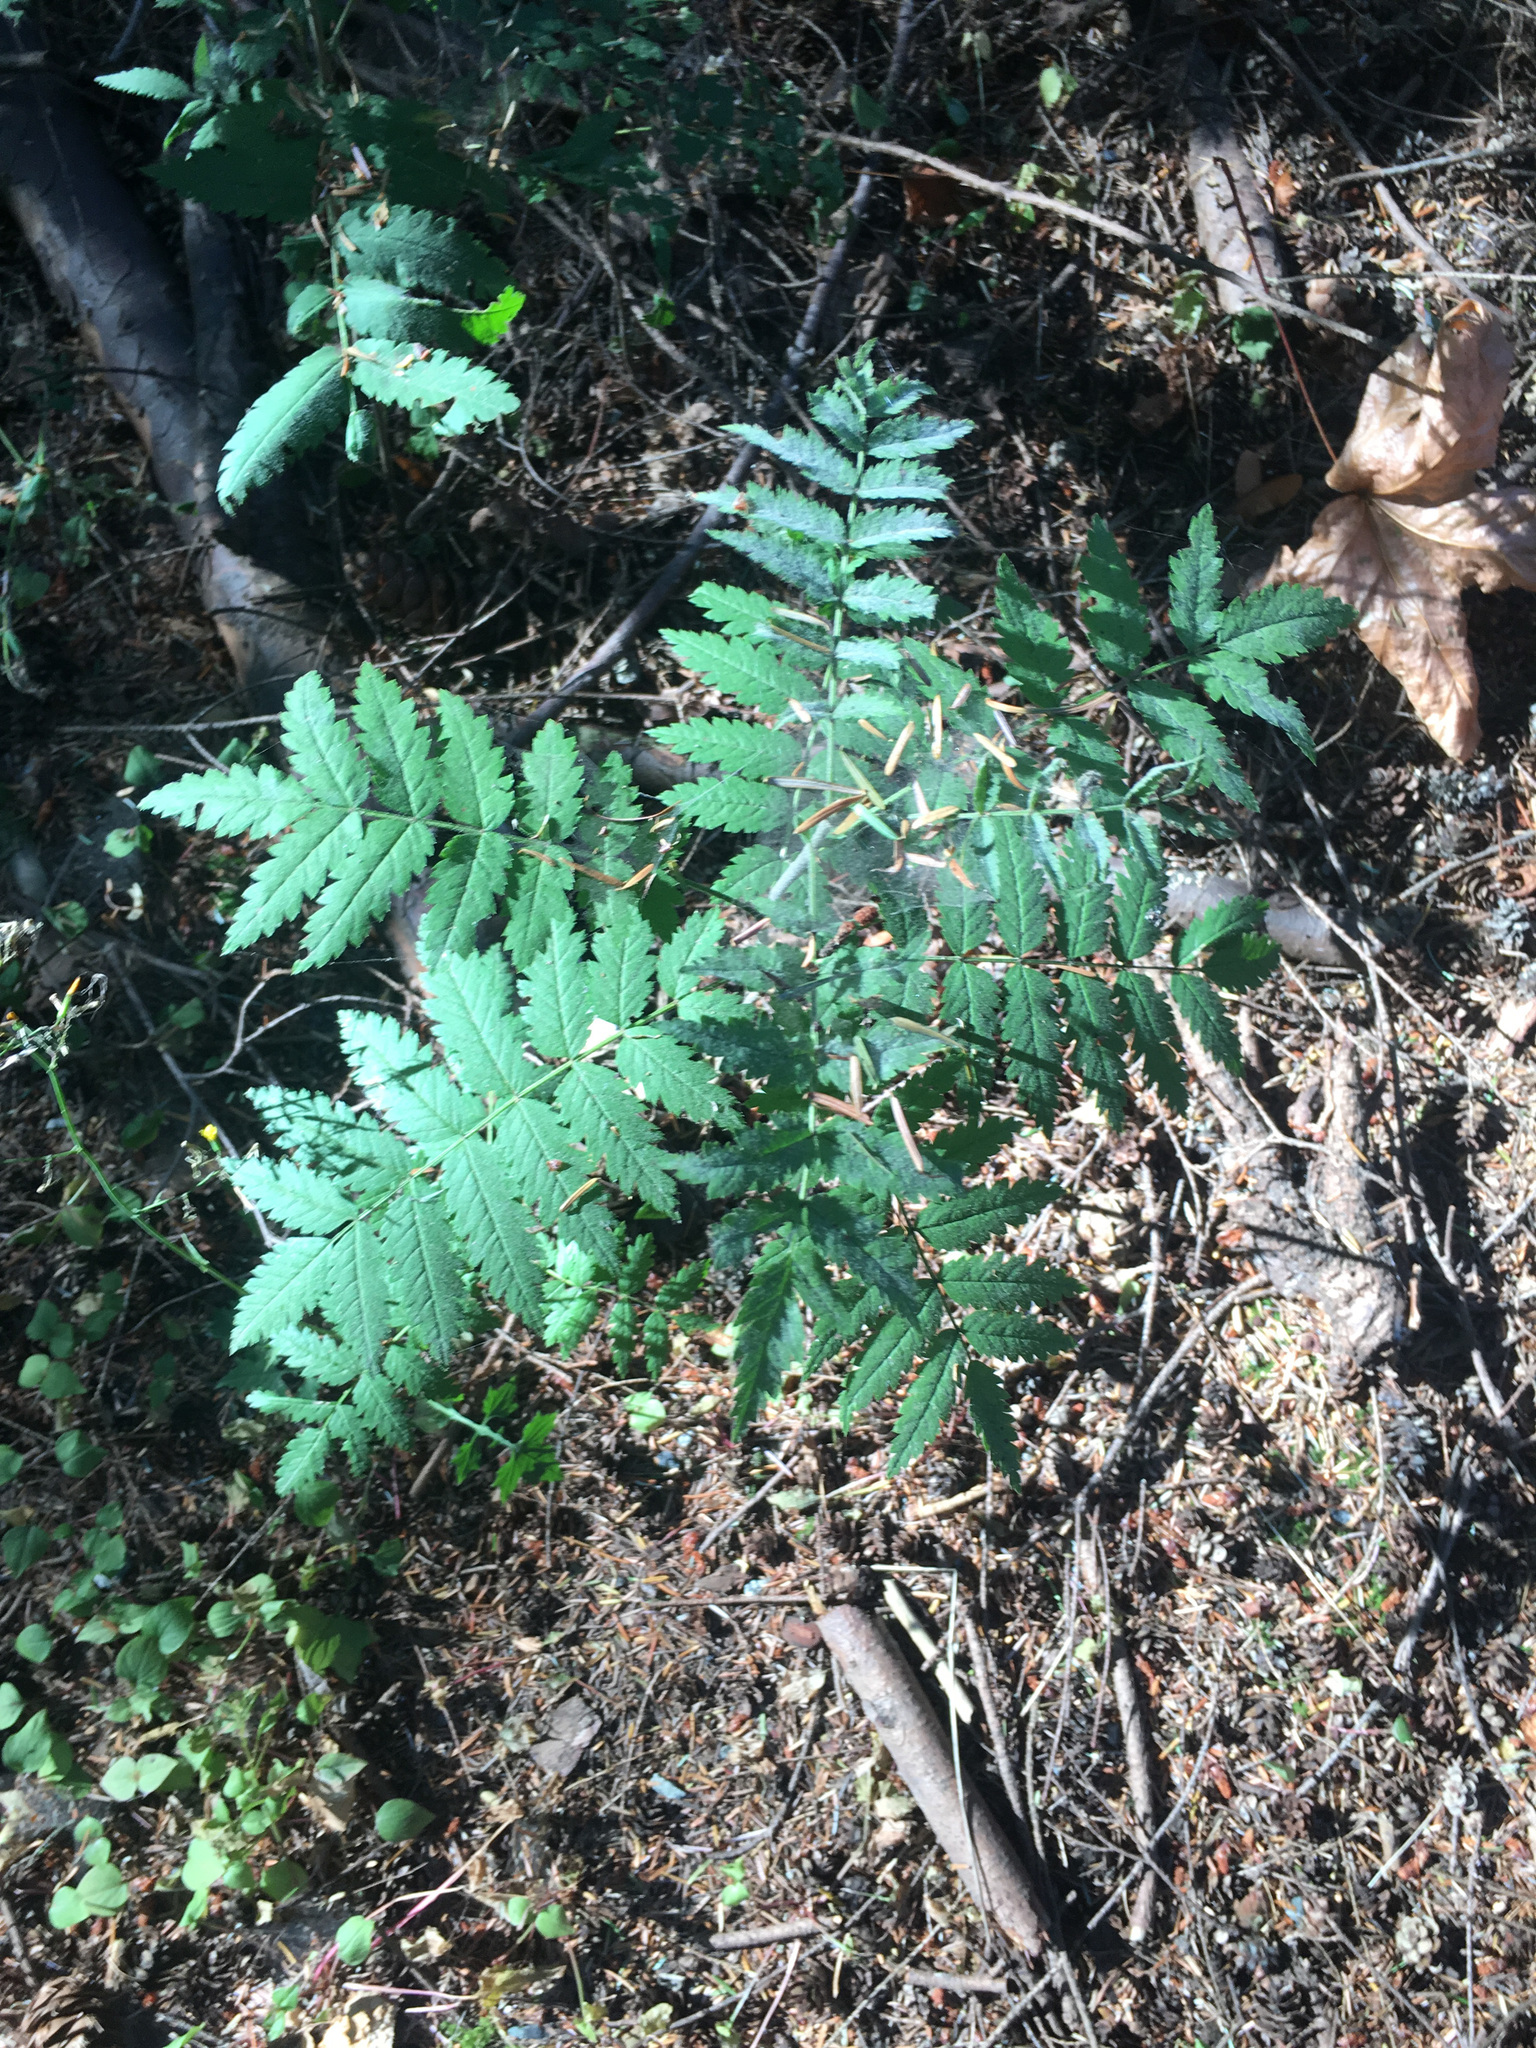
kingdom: Plantae
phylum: Tracheophyta
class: Magnoliopsida
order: Rosales
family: Rosaceae
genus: Sorbus
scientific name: Sorbus aucuparia
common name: Rowan
